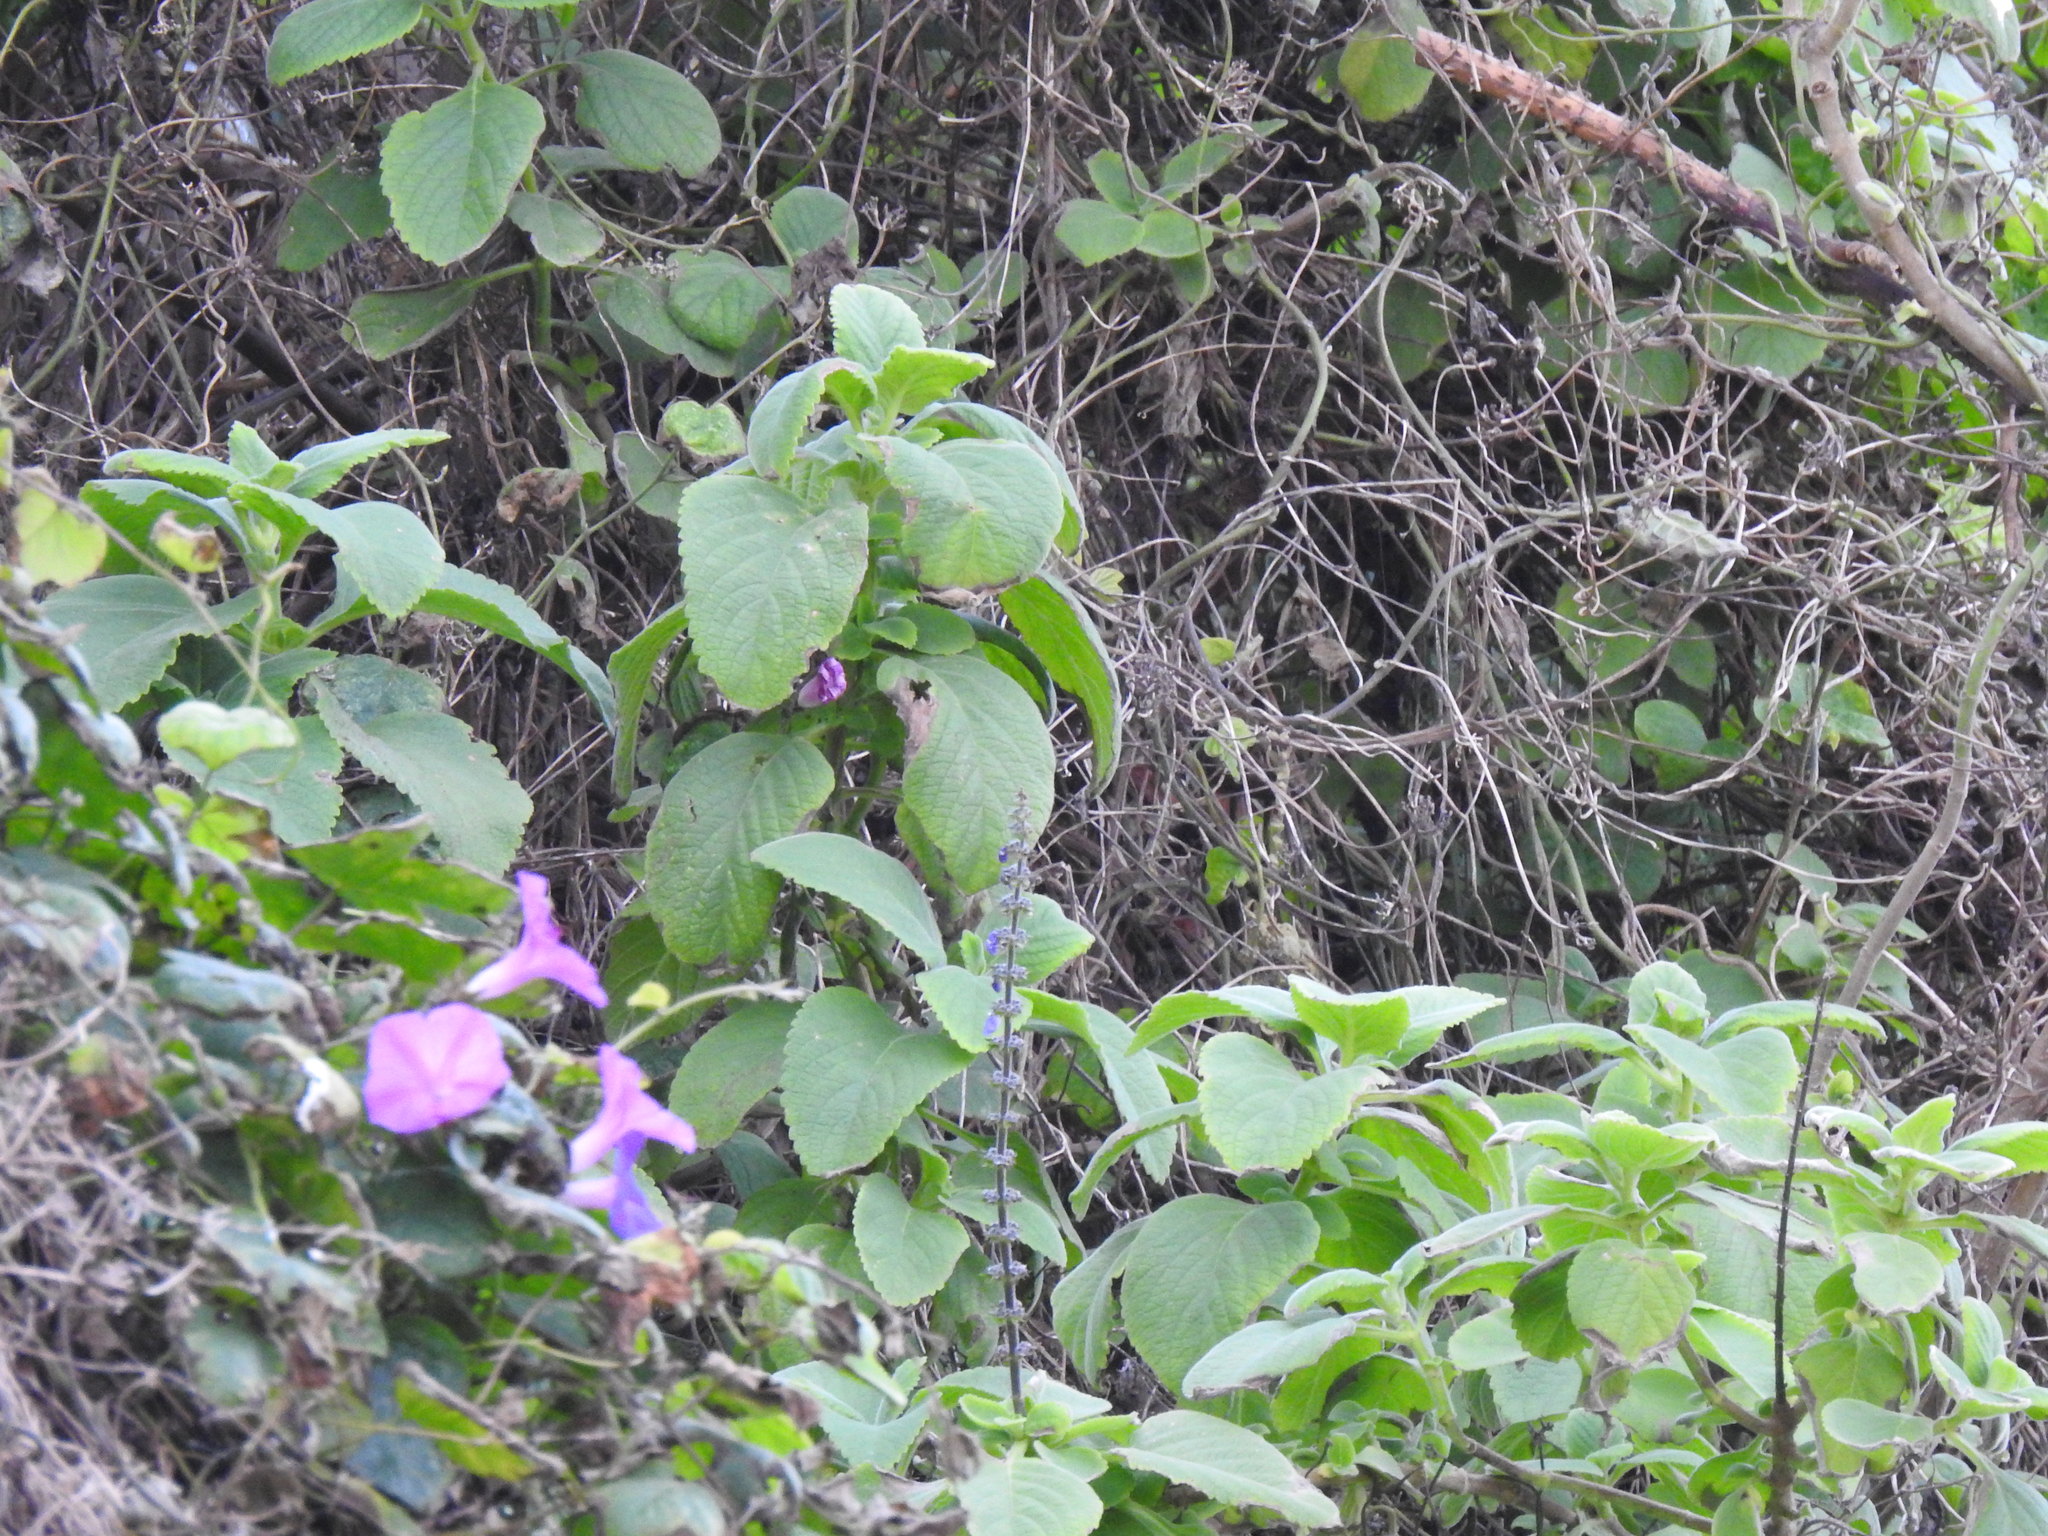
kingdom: Plantae
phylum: Tracheophyta
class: Magnoliopsida
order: Lamiales
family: Lamiaceae
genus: Coleus
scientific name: Coleus barbatus
